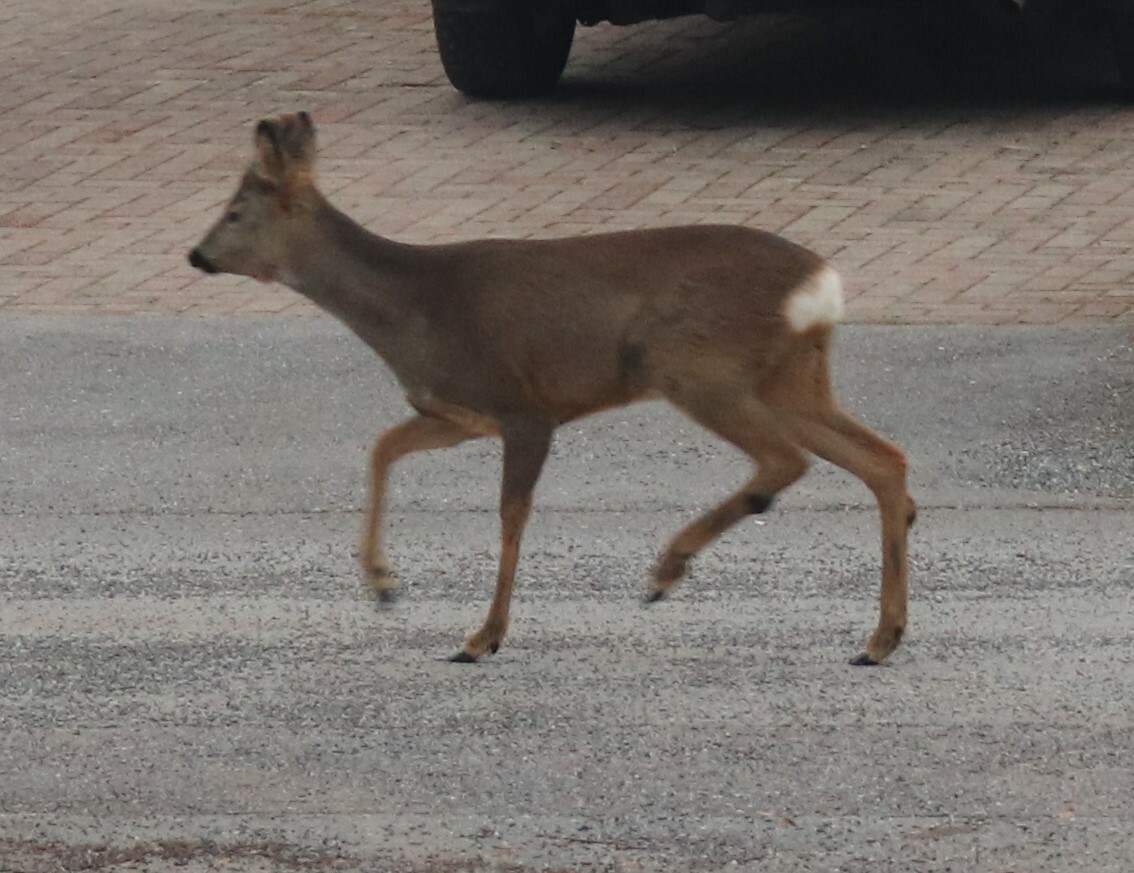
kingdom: Animalia
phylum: Chordata
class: Mammalia
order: Artiodactyla
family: Cervidae
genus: Capreolus
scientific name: Capreolus capreolus
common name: Western roe deer
